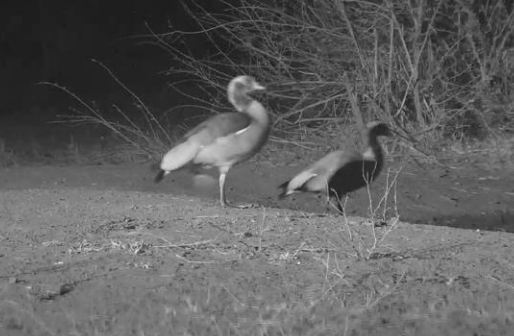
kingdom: Animalia
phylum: Chordata
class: Aves
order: Anseriformes
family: Anatidae
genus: Alopochen
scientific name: Alopochen aegyptiaca
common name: Egyptian goose
